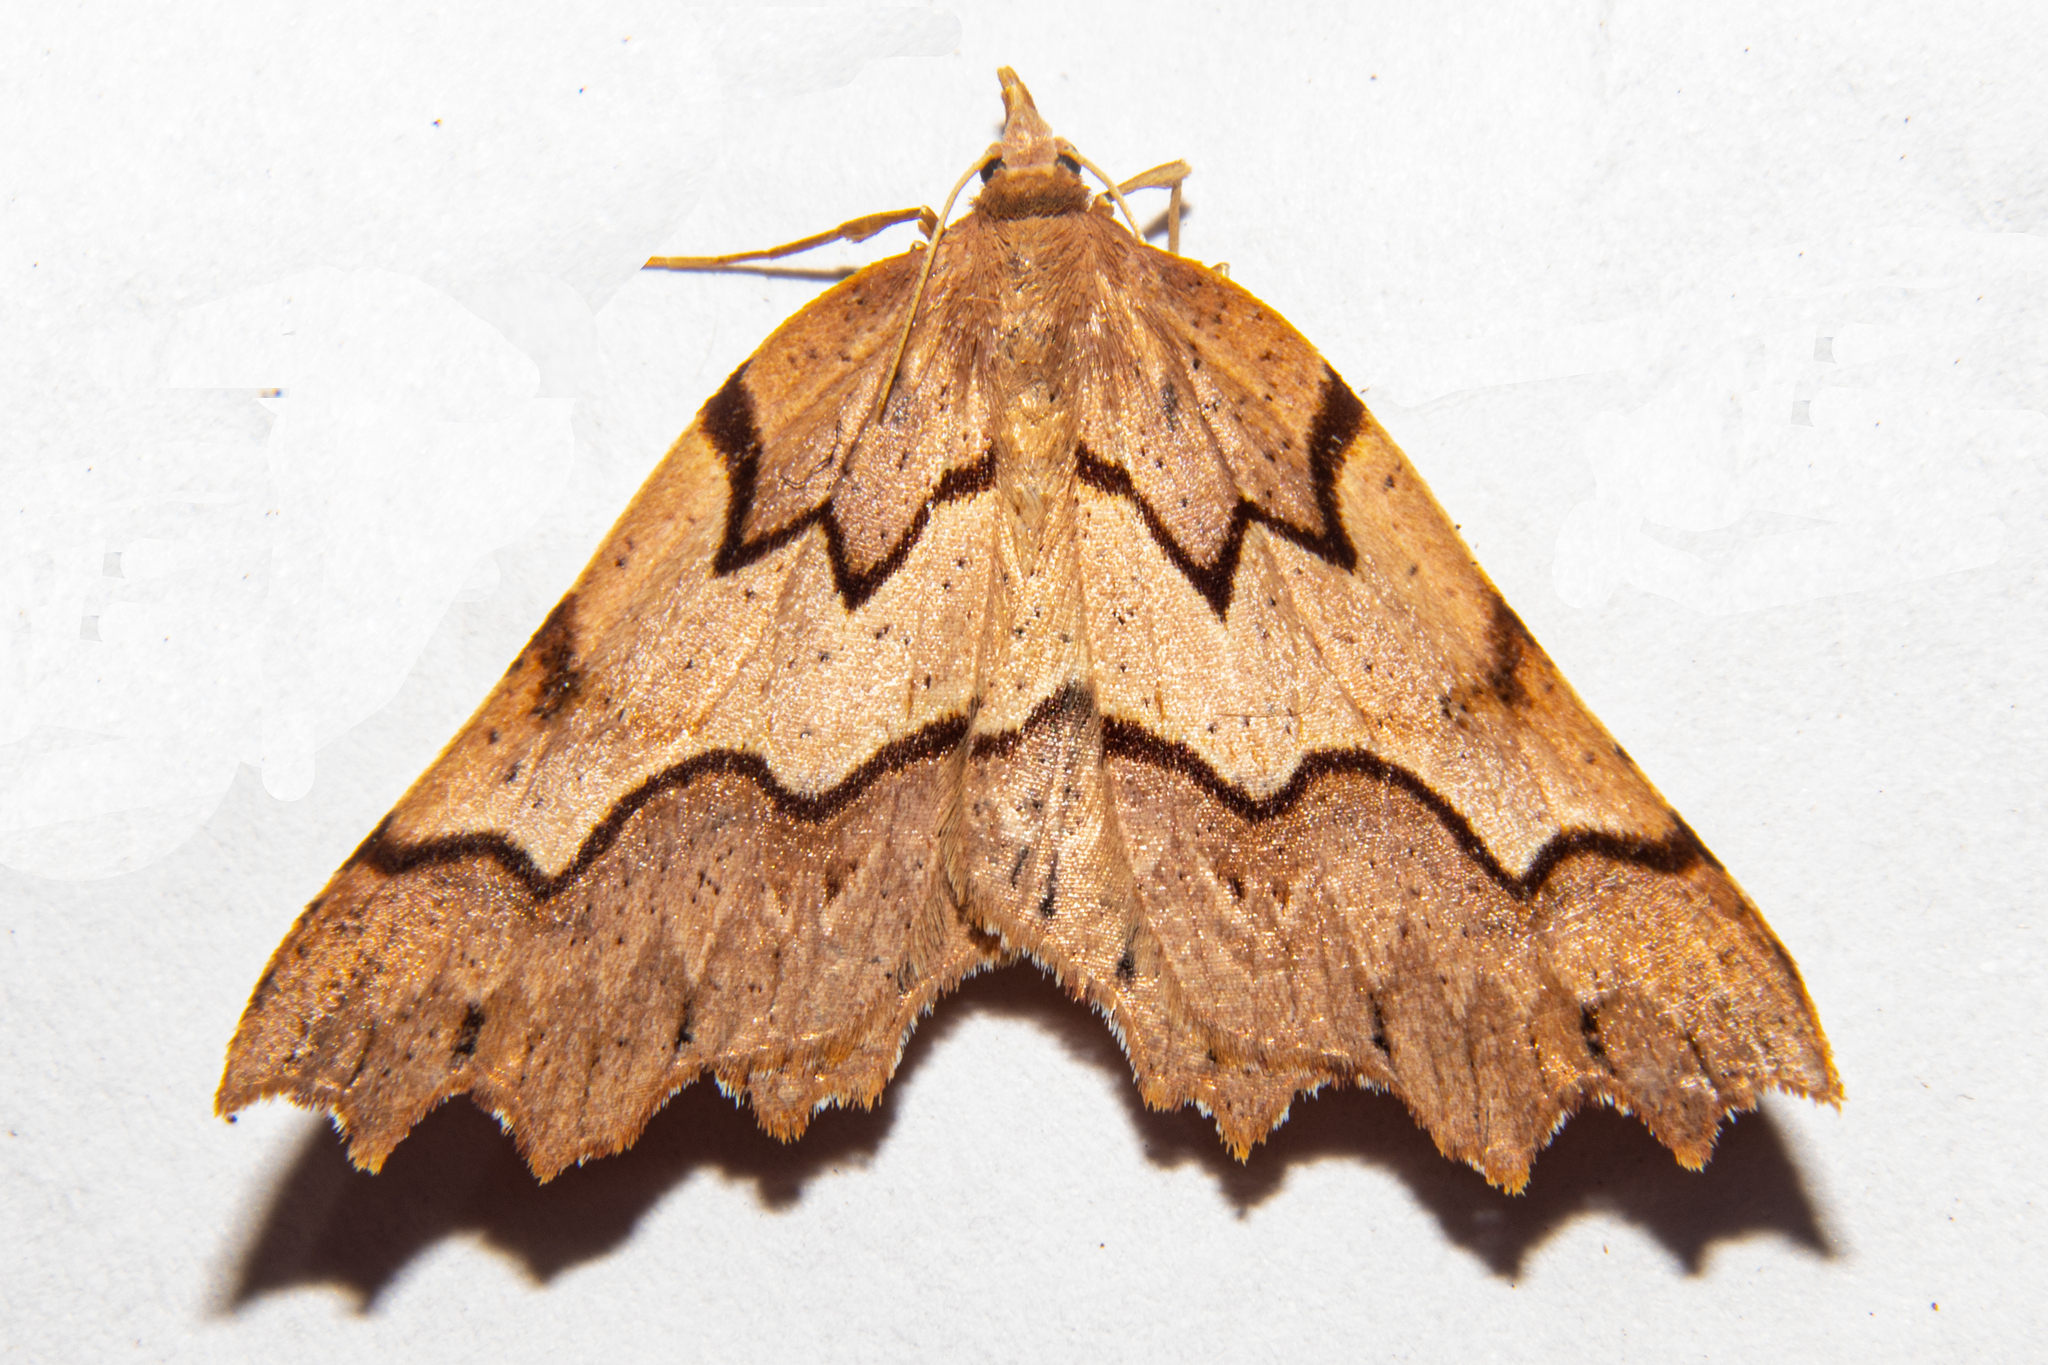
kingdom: Animalia
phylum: Arthropoda
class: Insecta
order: Lepidoptera
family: Geometridae
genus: Ischalis
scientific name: Ischalis fortinata
